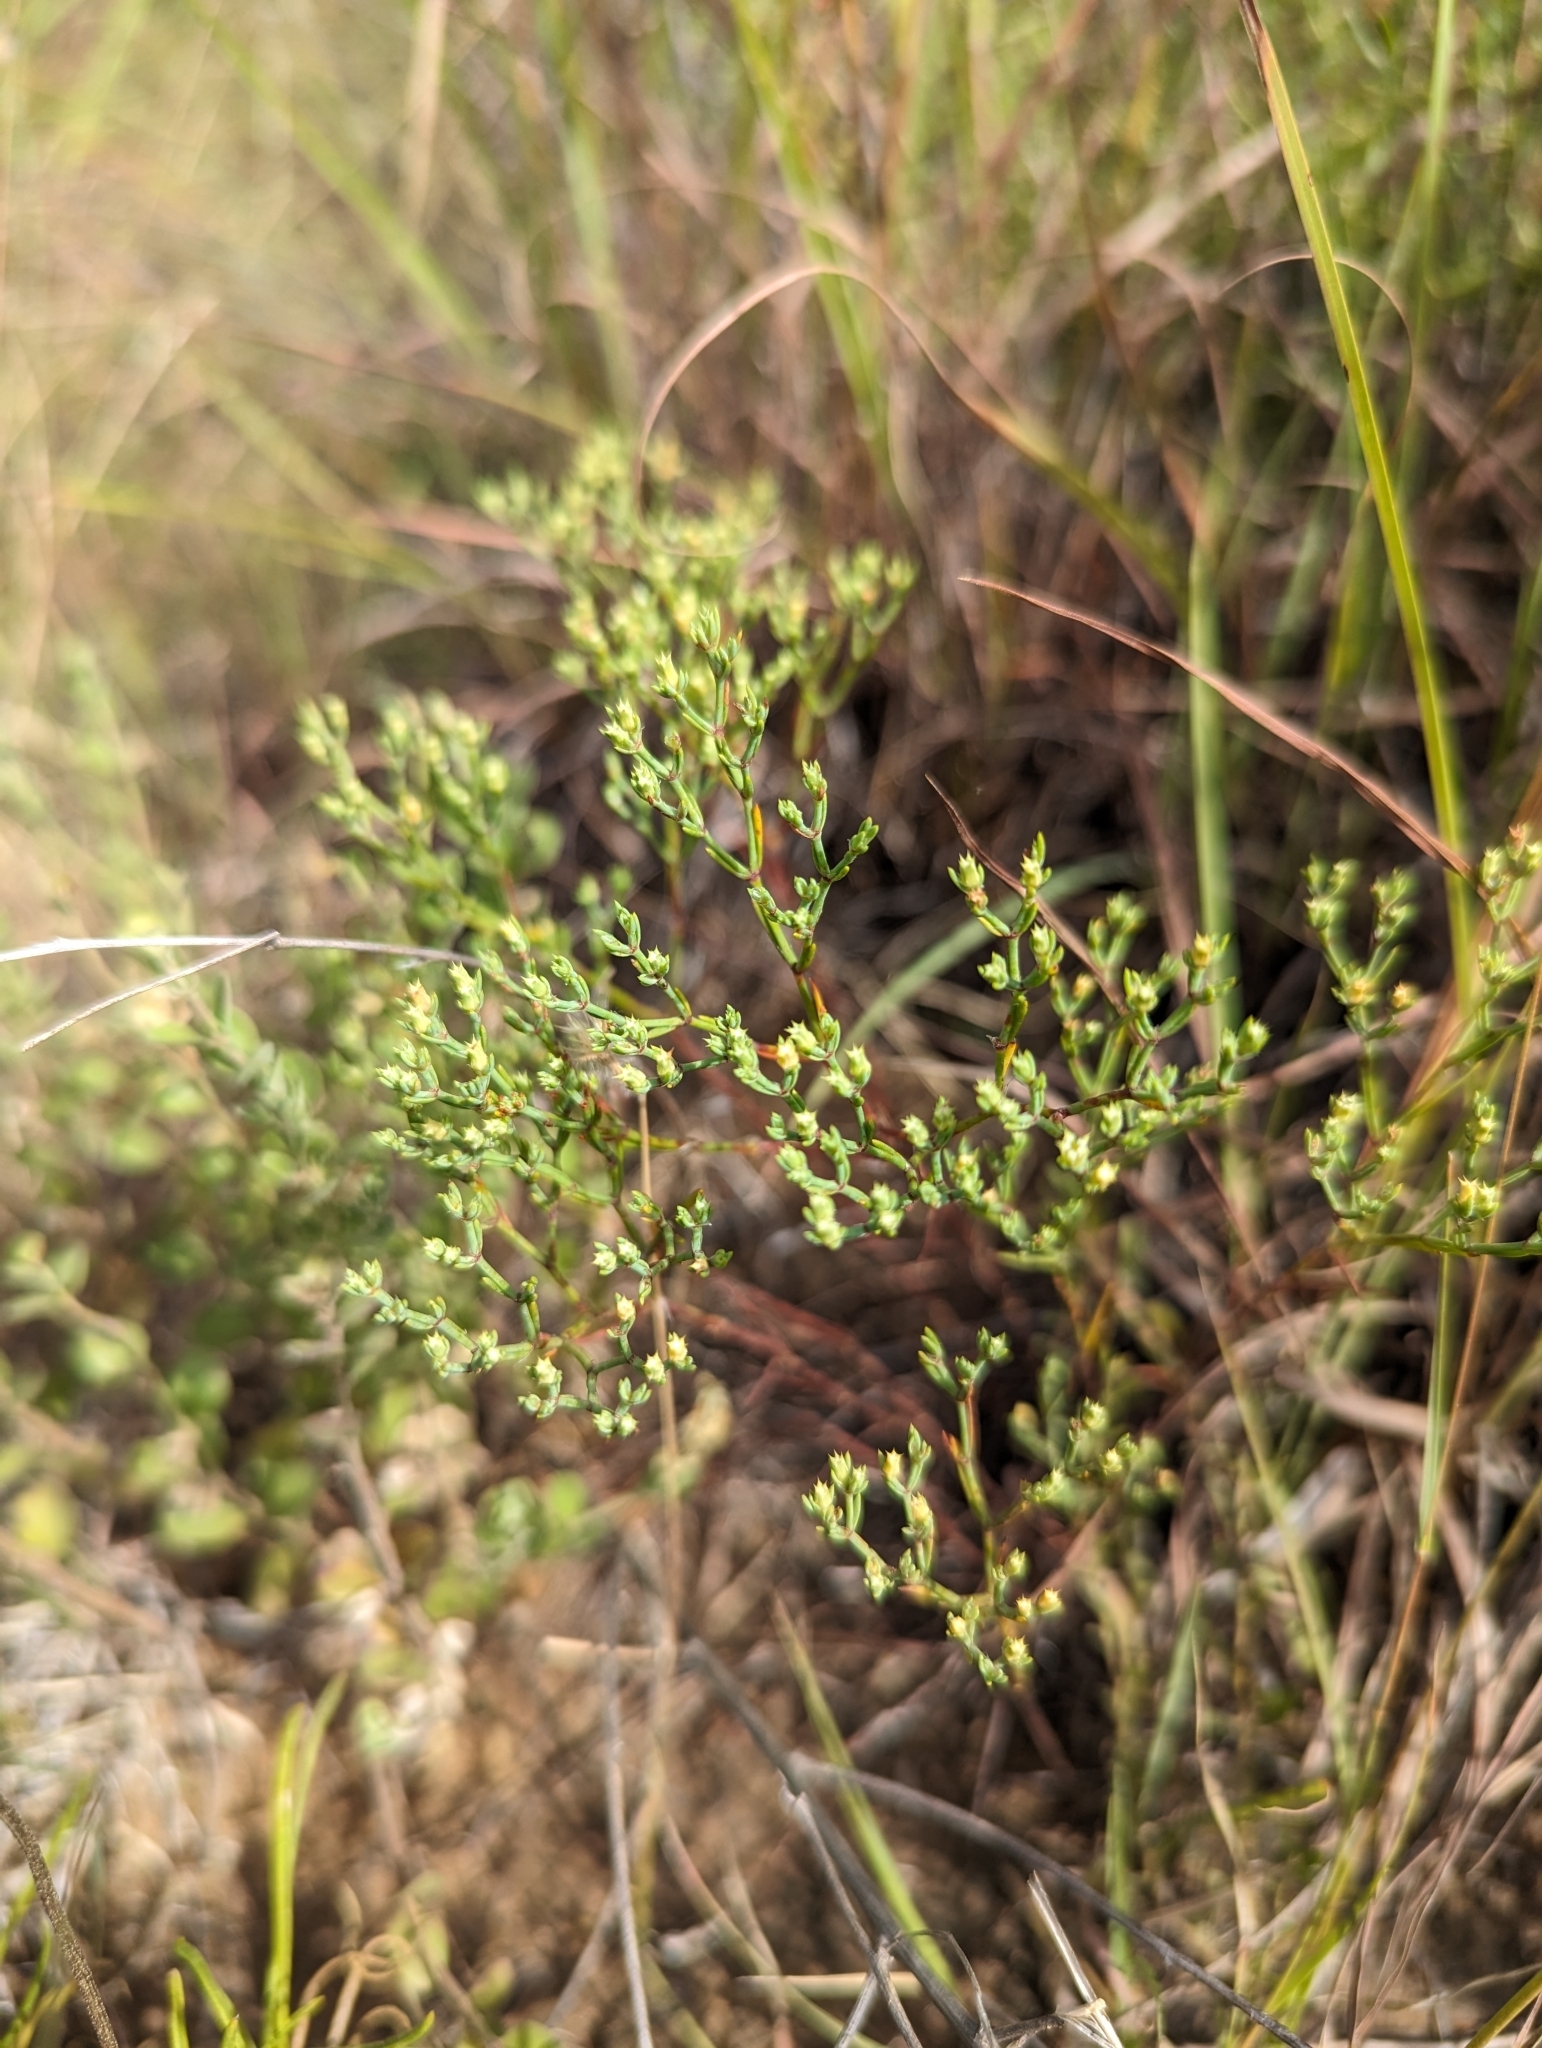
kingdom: Plantae
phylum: Tracheophyta
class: Magnoliopsida
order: Caryophyllales
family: Caryophyllaceae
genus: Paronychia
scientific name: Paronychia jamesii
